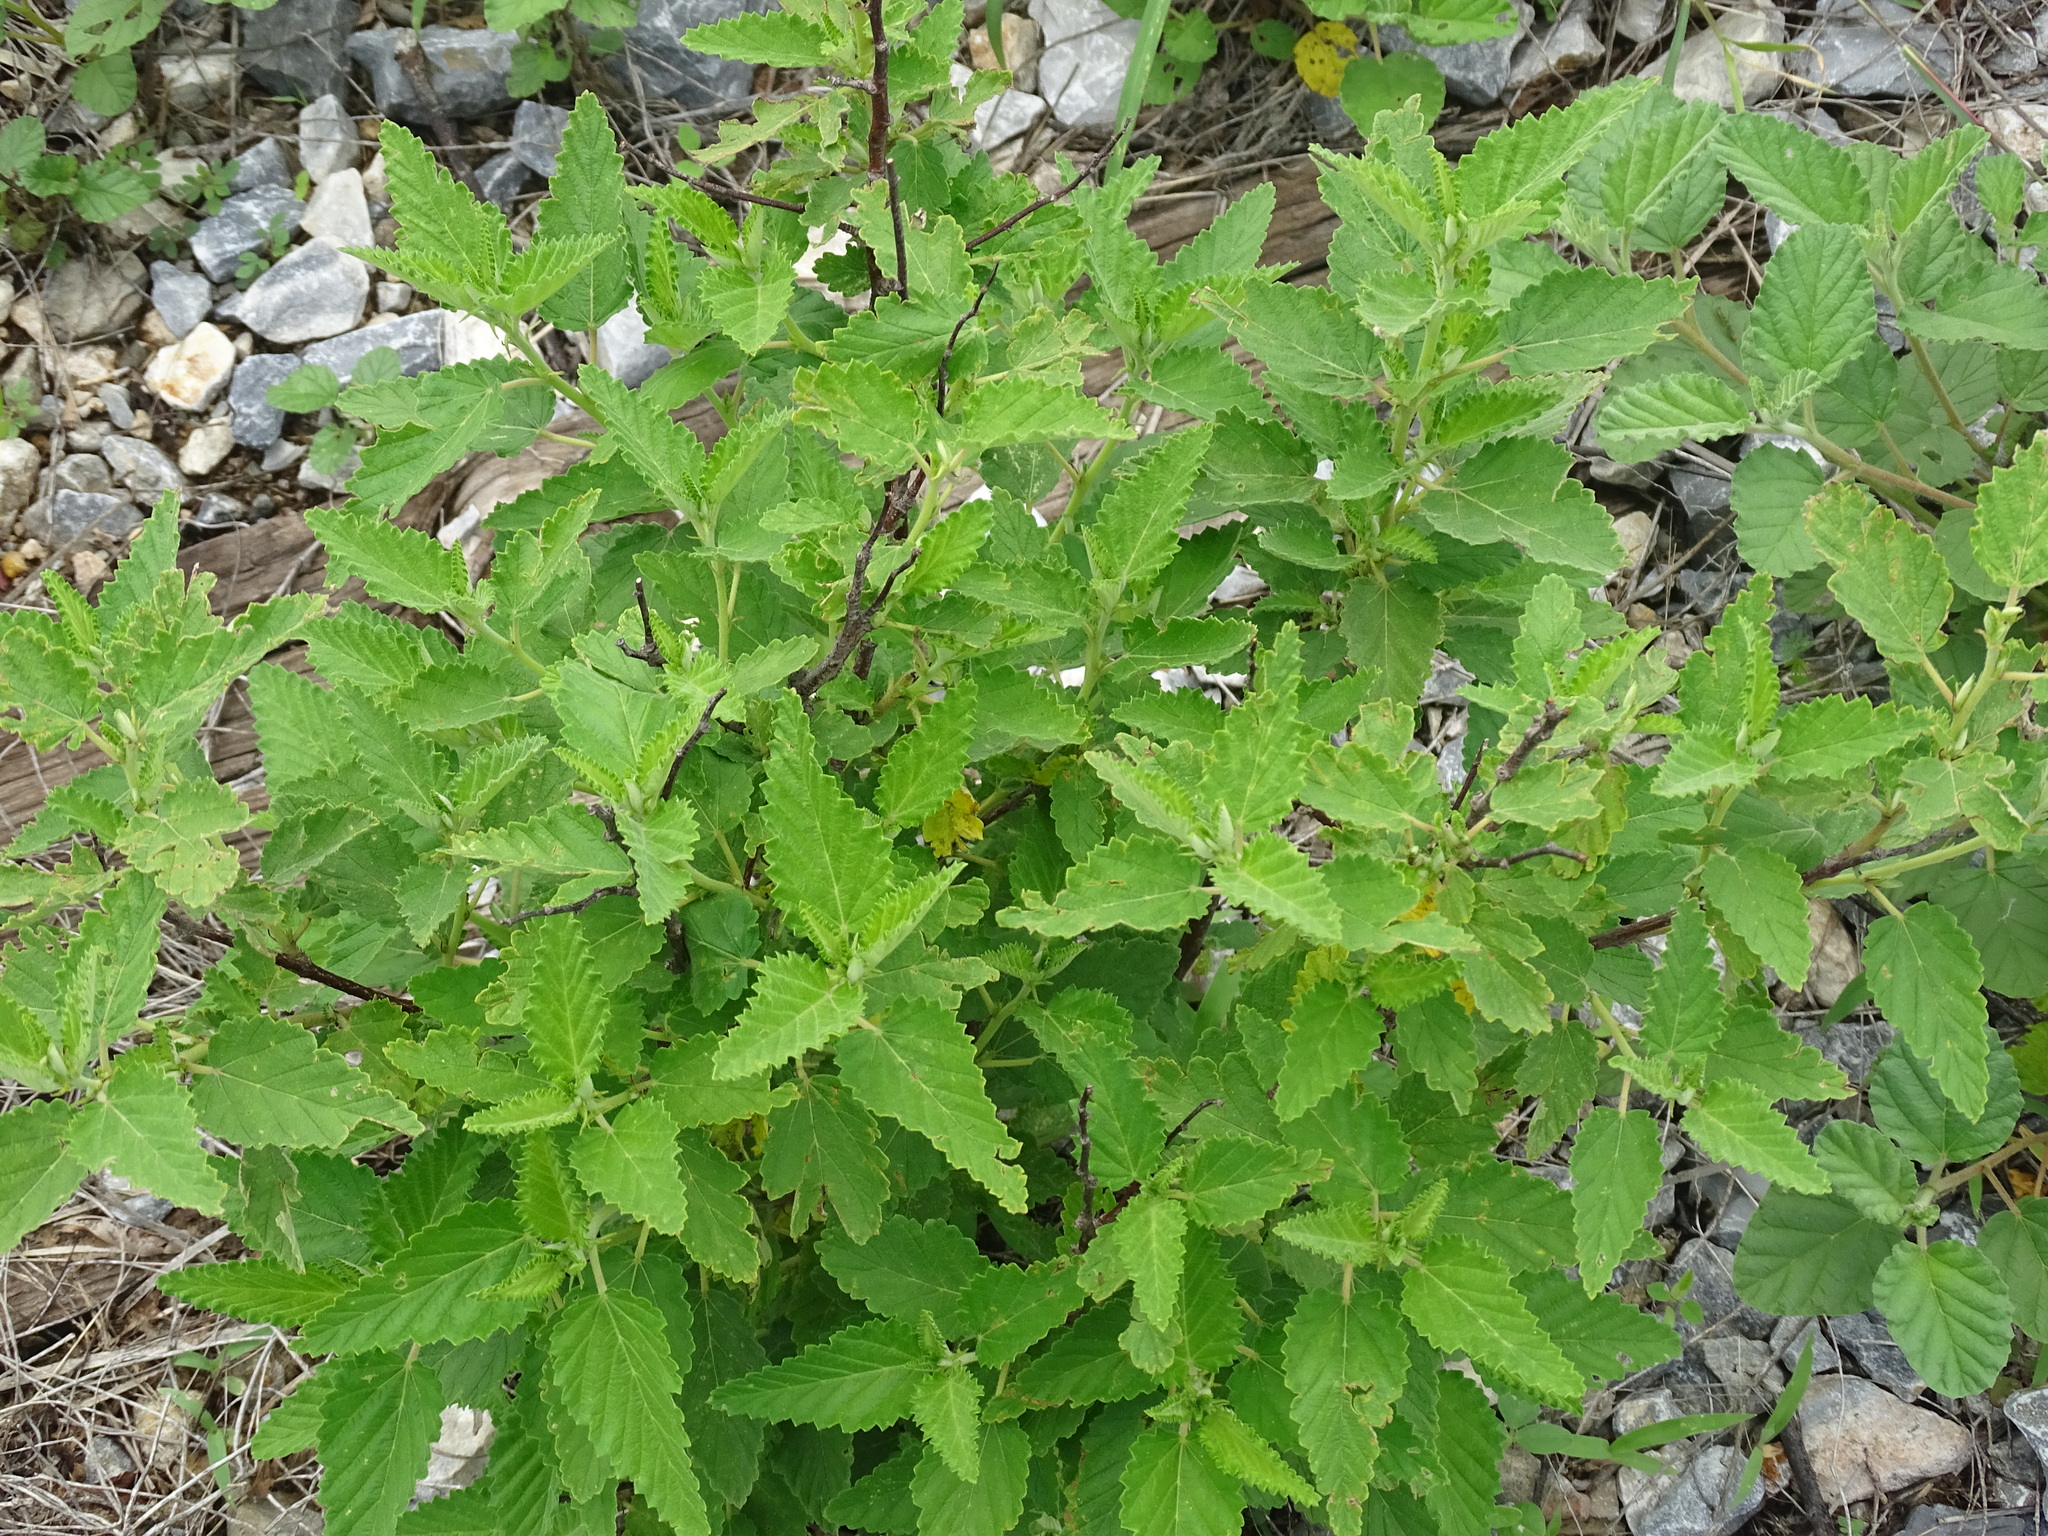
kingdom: Plantae
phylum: Tracheophyta
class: Magnoliopsida
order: Malvales
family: Malvaceae
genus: Melochia
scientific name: Melochia tomentosa
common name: Black torch
